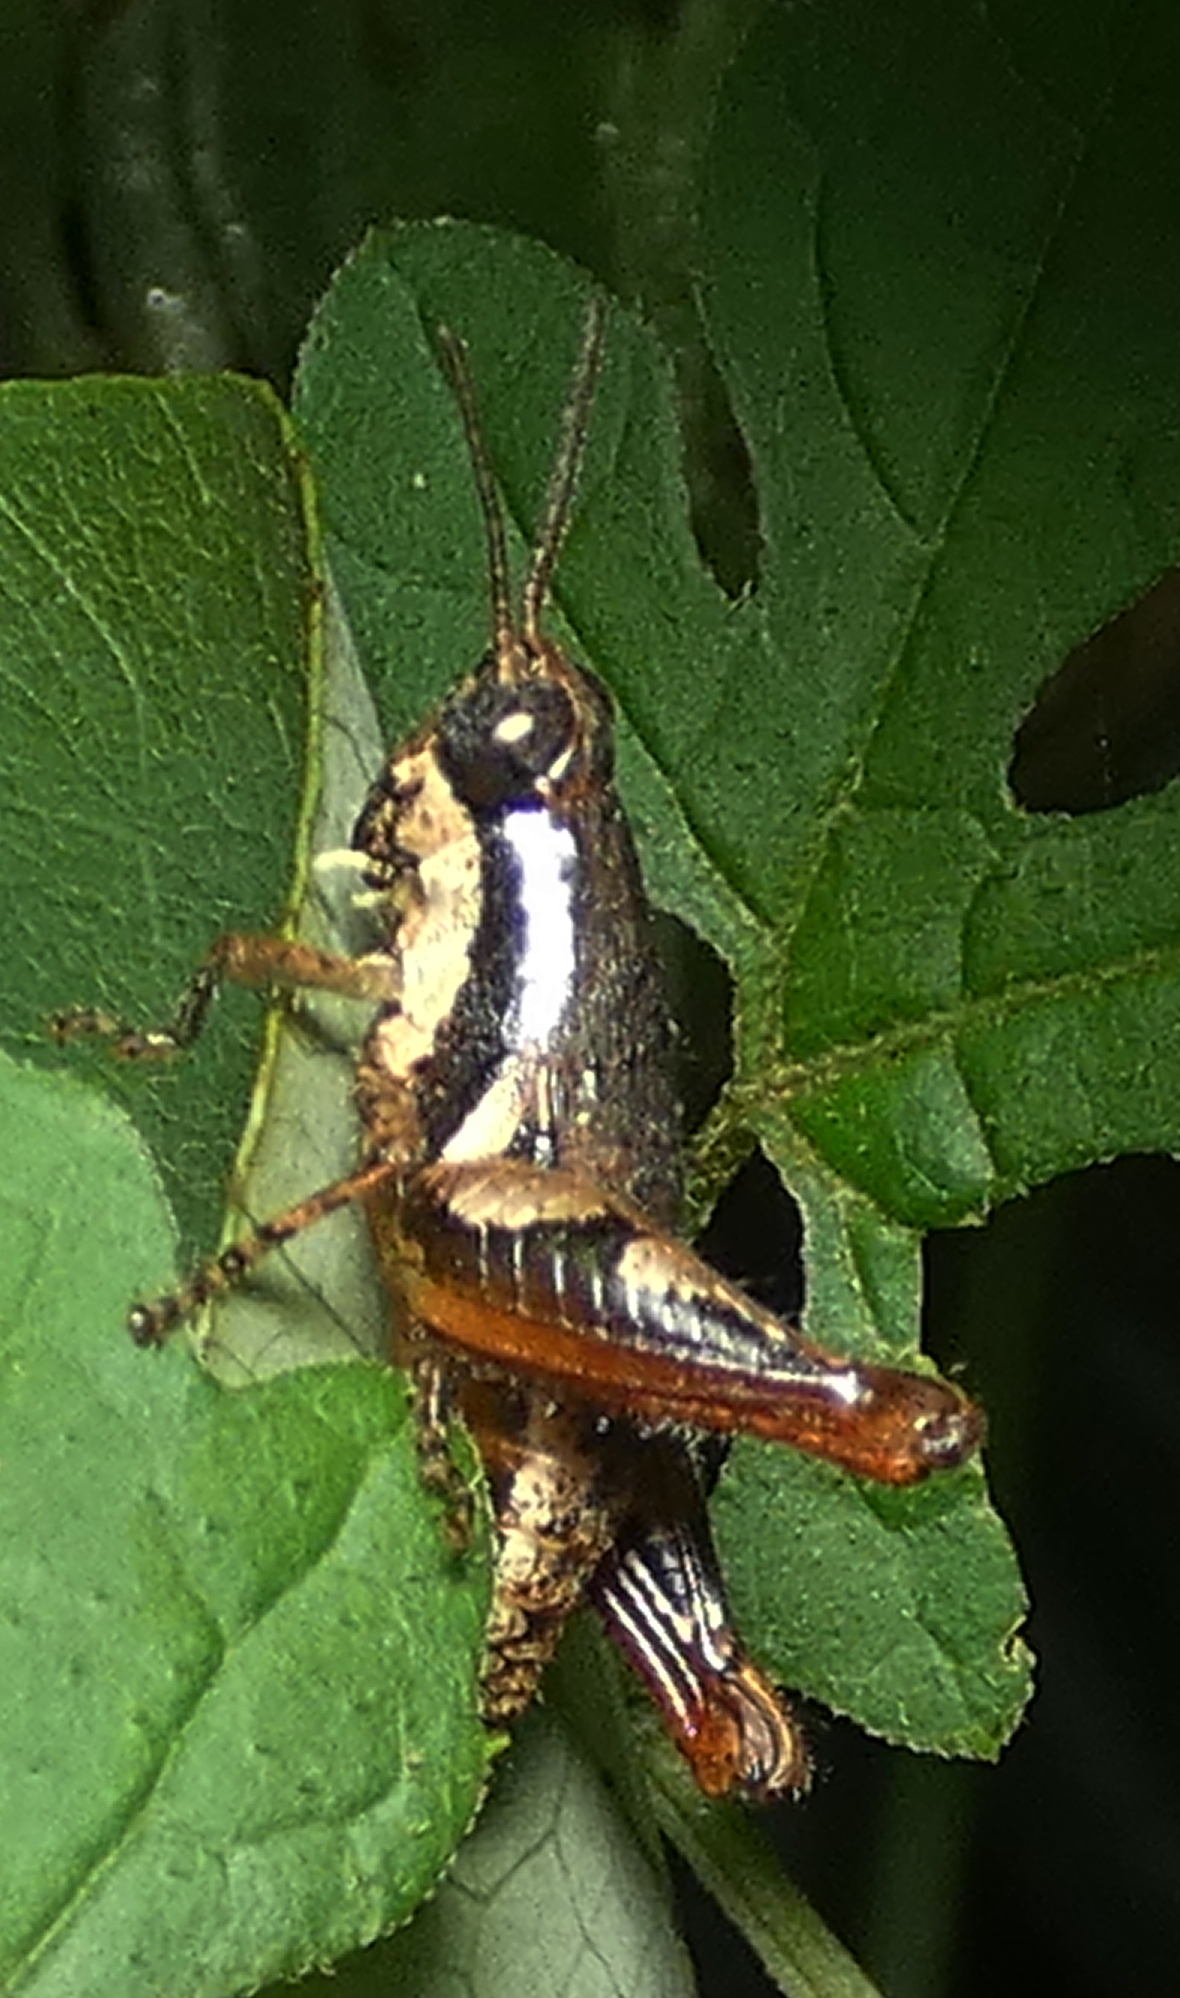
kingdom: Animalia
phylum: Arthropoda
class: Insecta
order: Orthoptera
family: Acrididae
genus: Eujivarus
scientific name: Eujivarus meridionalis
